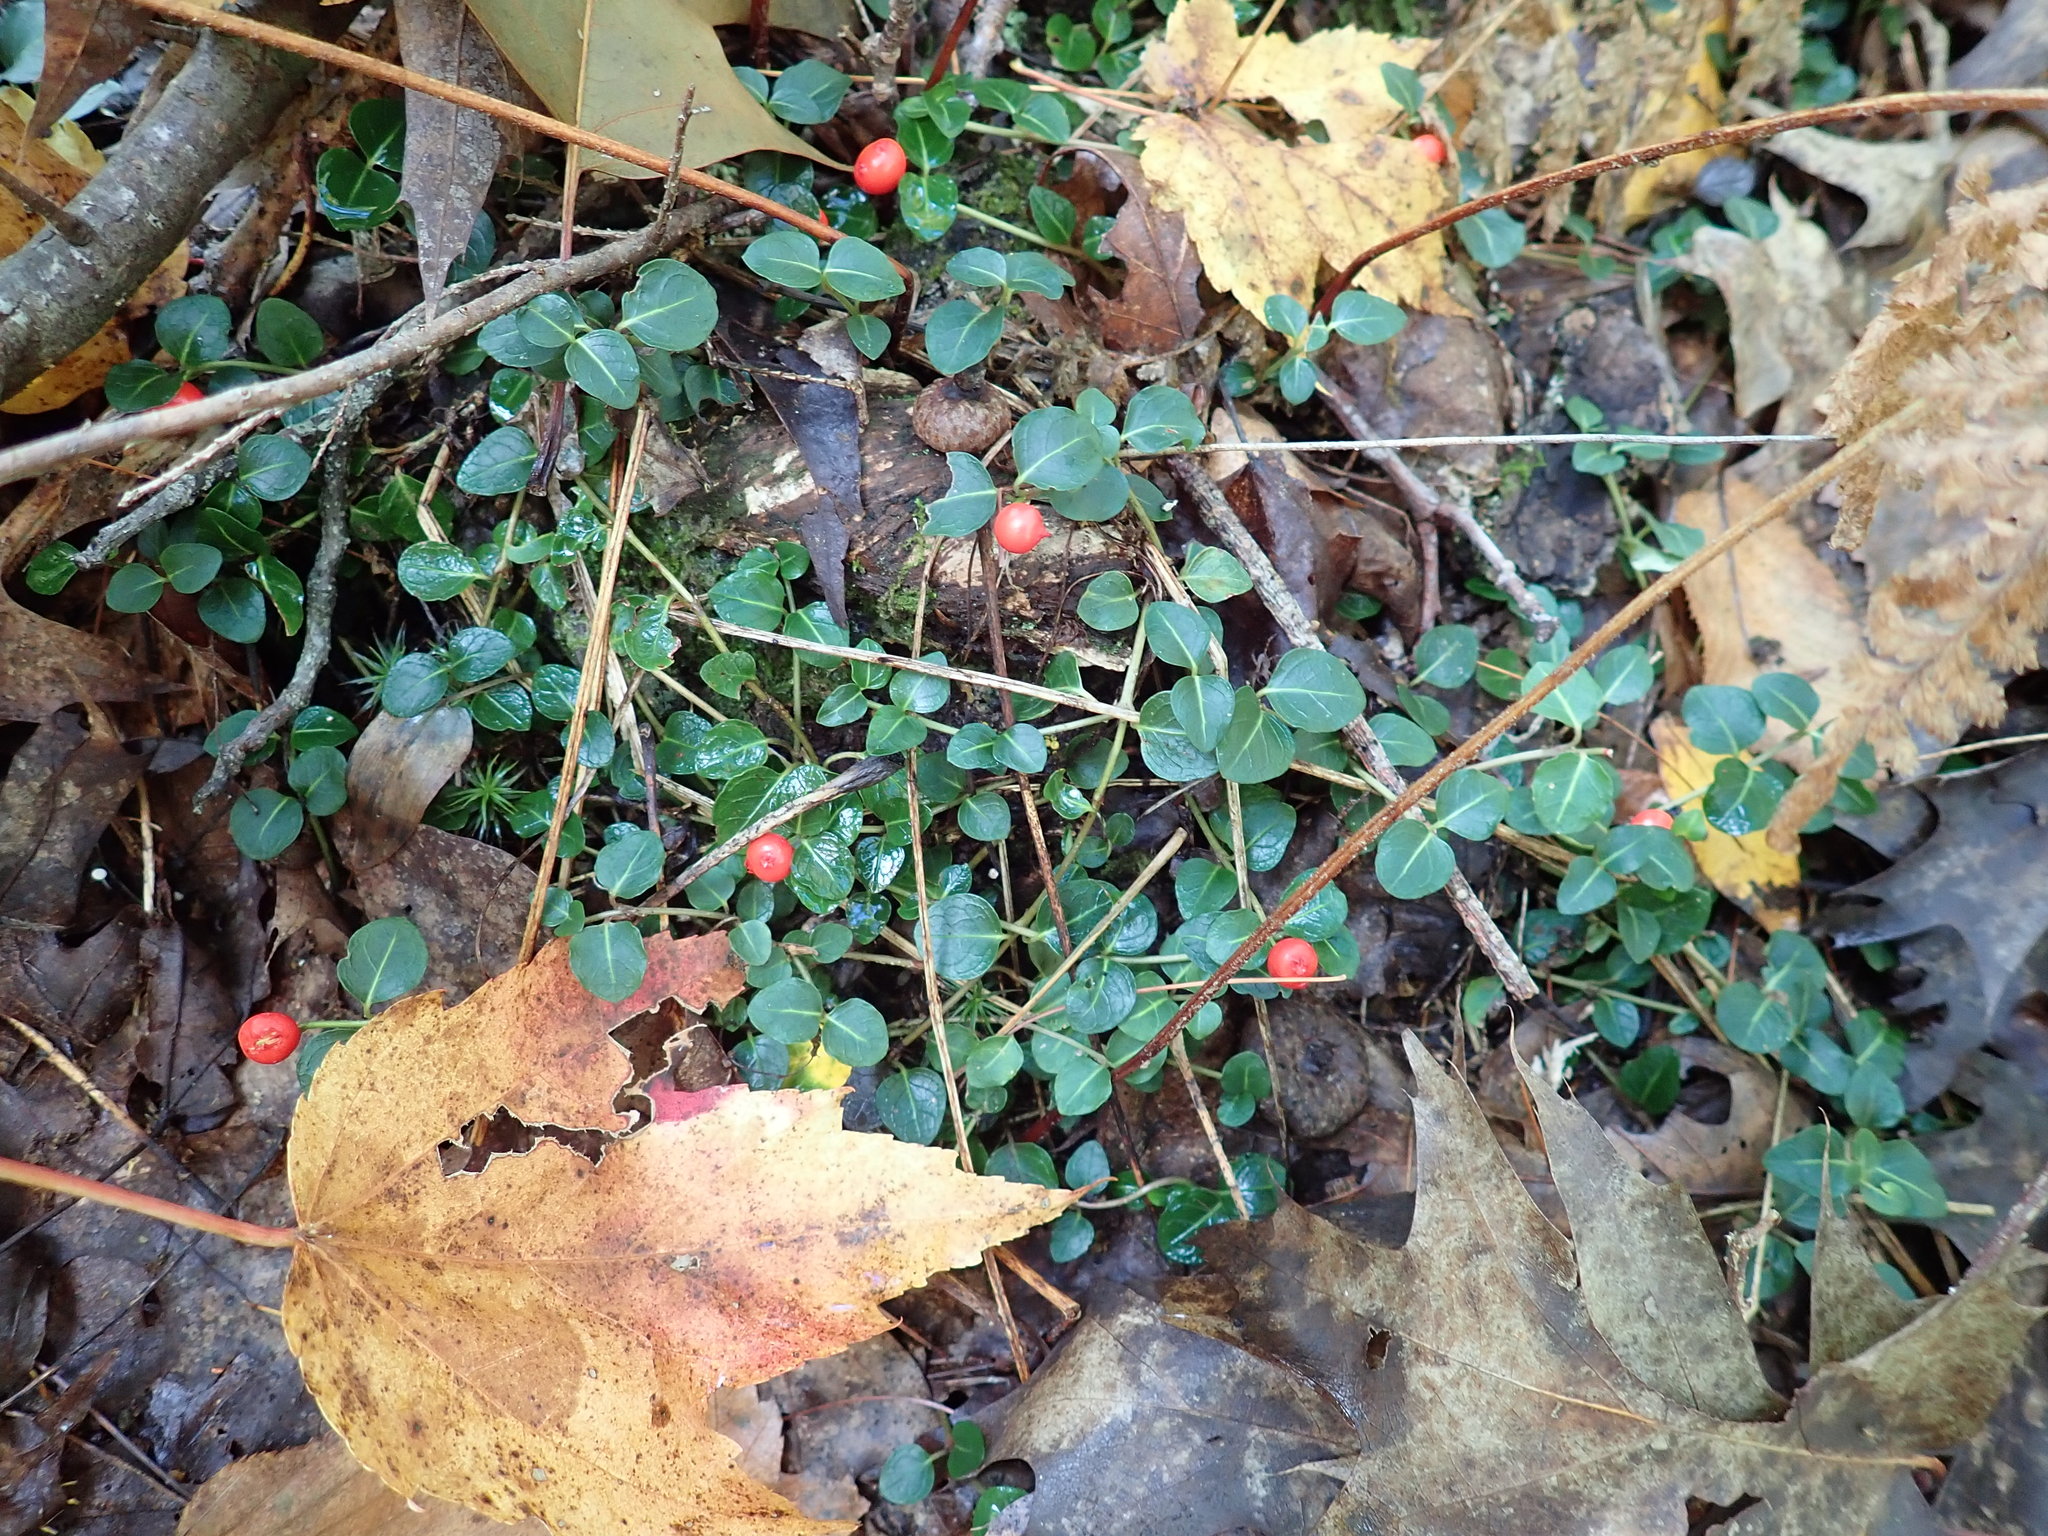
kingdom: Plantae
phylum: Tracheophyta
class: Magnoliopsida
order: Gentianales
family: Rubiaceae
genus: Mitchella
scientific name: Mitchella repens
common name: Partridge-berry
